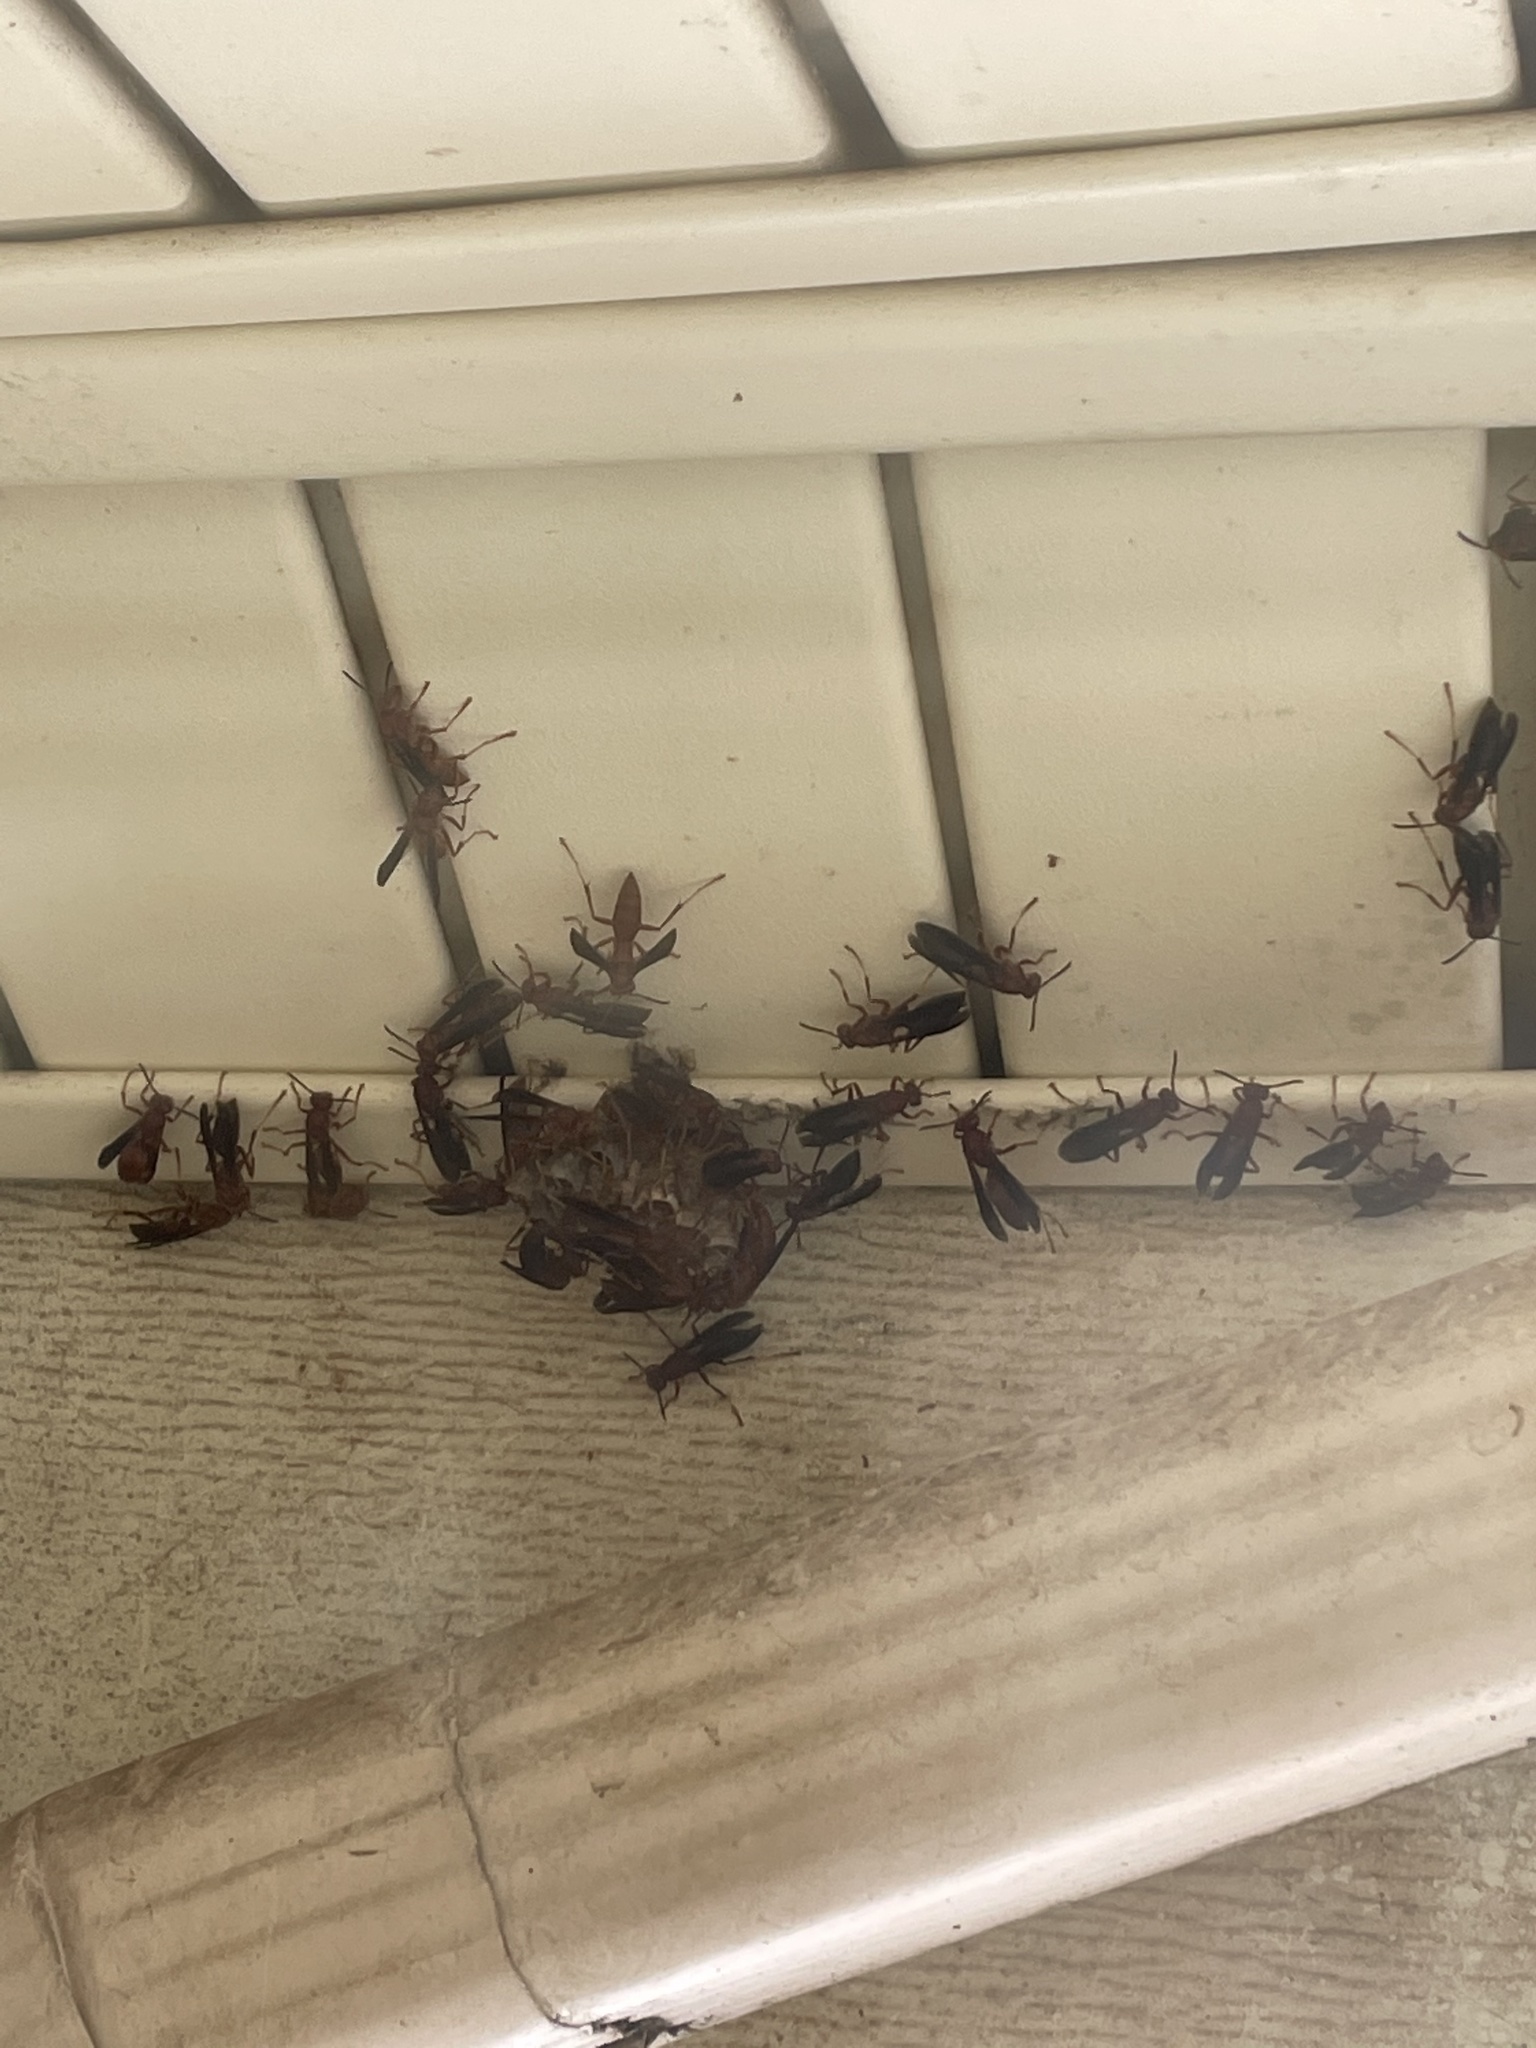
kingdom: Animalia
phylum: Arthropoda
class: Insecta
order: Hymenoptera
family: Vespidae
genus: Fuscopolistes
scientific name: Fuscopolistes
